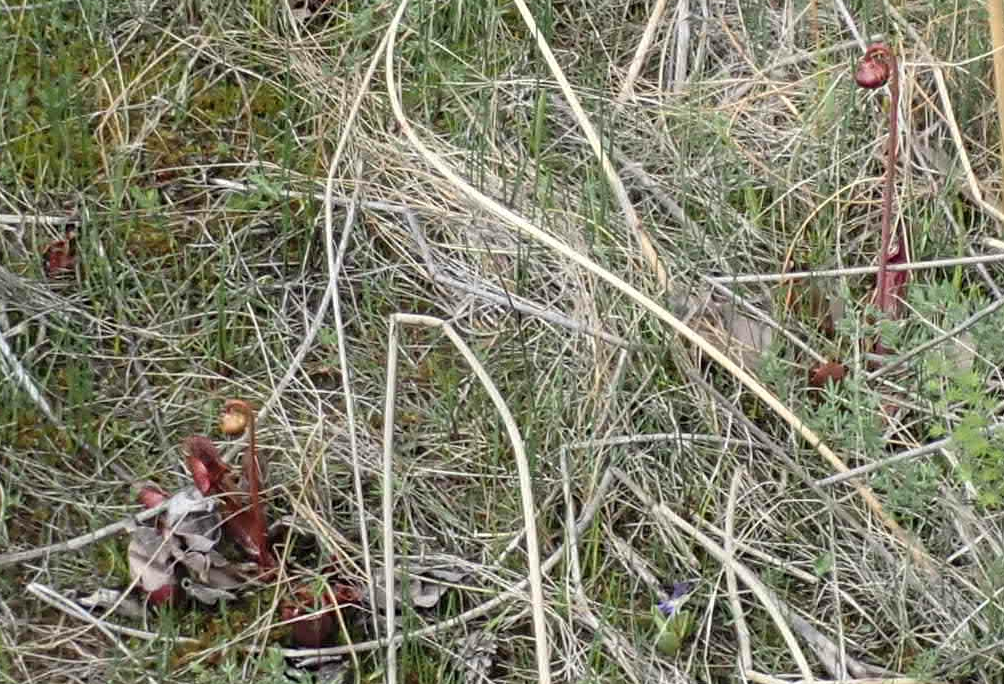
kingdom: Plantae
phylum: Tracheophyta
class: Magnoliopsida
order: Ericales
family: Sarraceniaceae
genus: Sarracenia
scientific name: Sarracenia purpurea
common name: Pitcherplant
